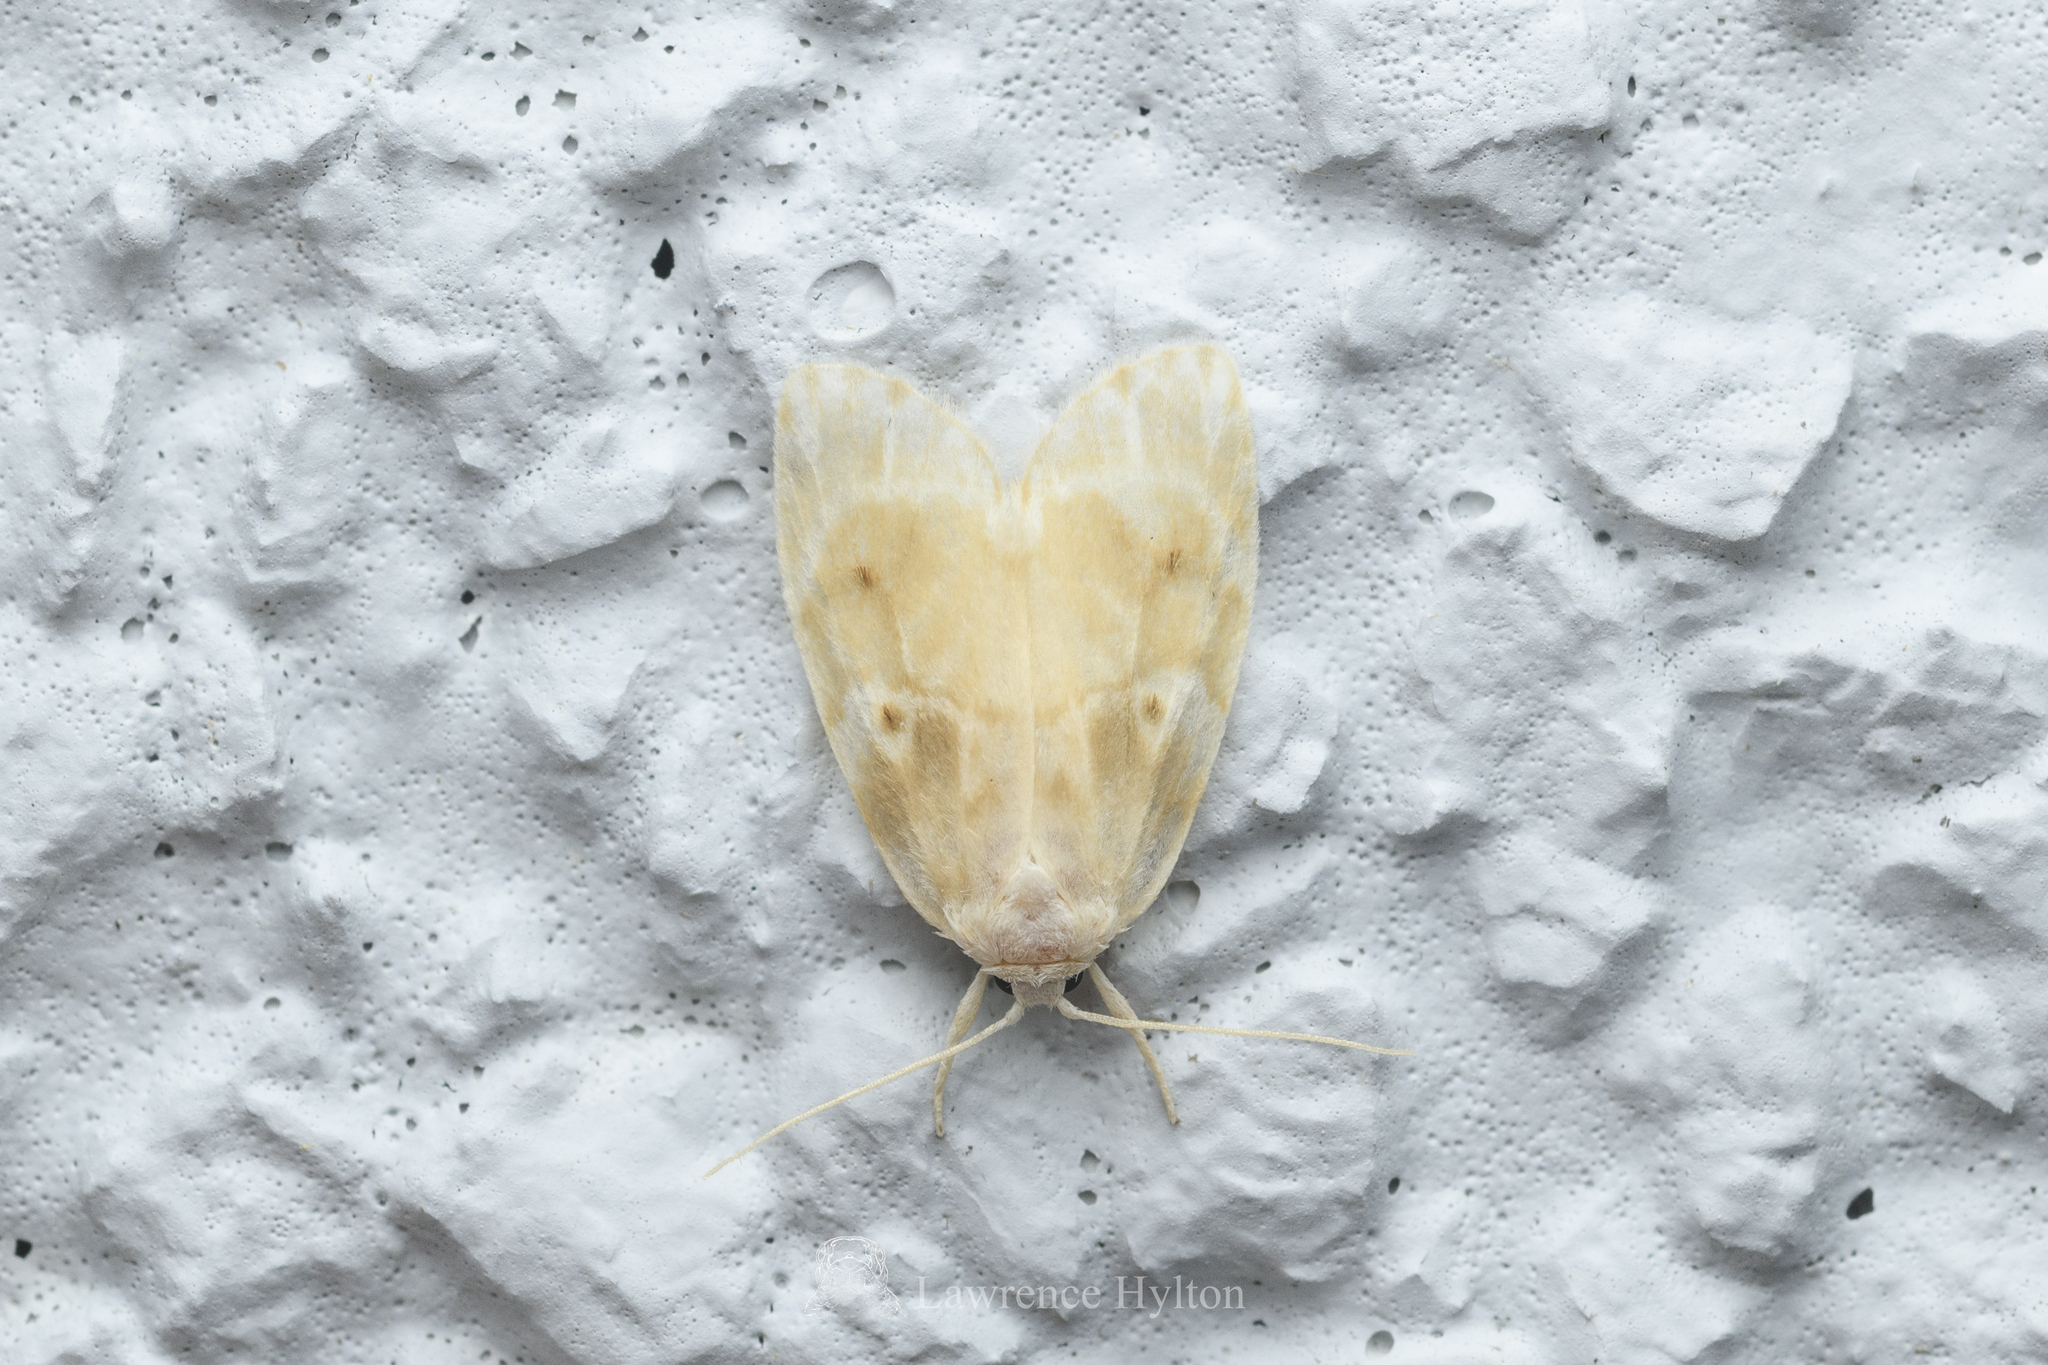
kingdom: Animalia
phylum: Arthropoda
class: Insecta
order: Lepidoptera
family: Erebidae
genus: Schistophleps
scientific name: Schistophleps bipuncta
